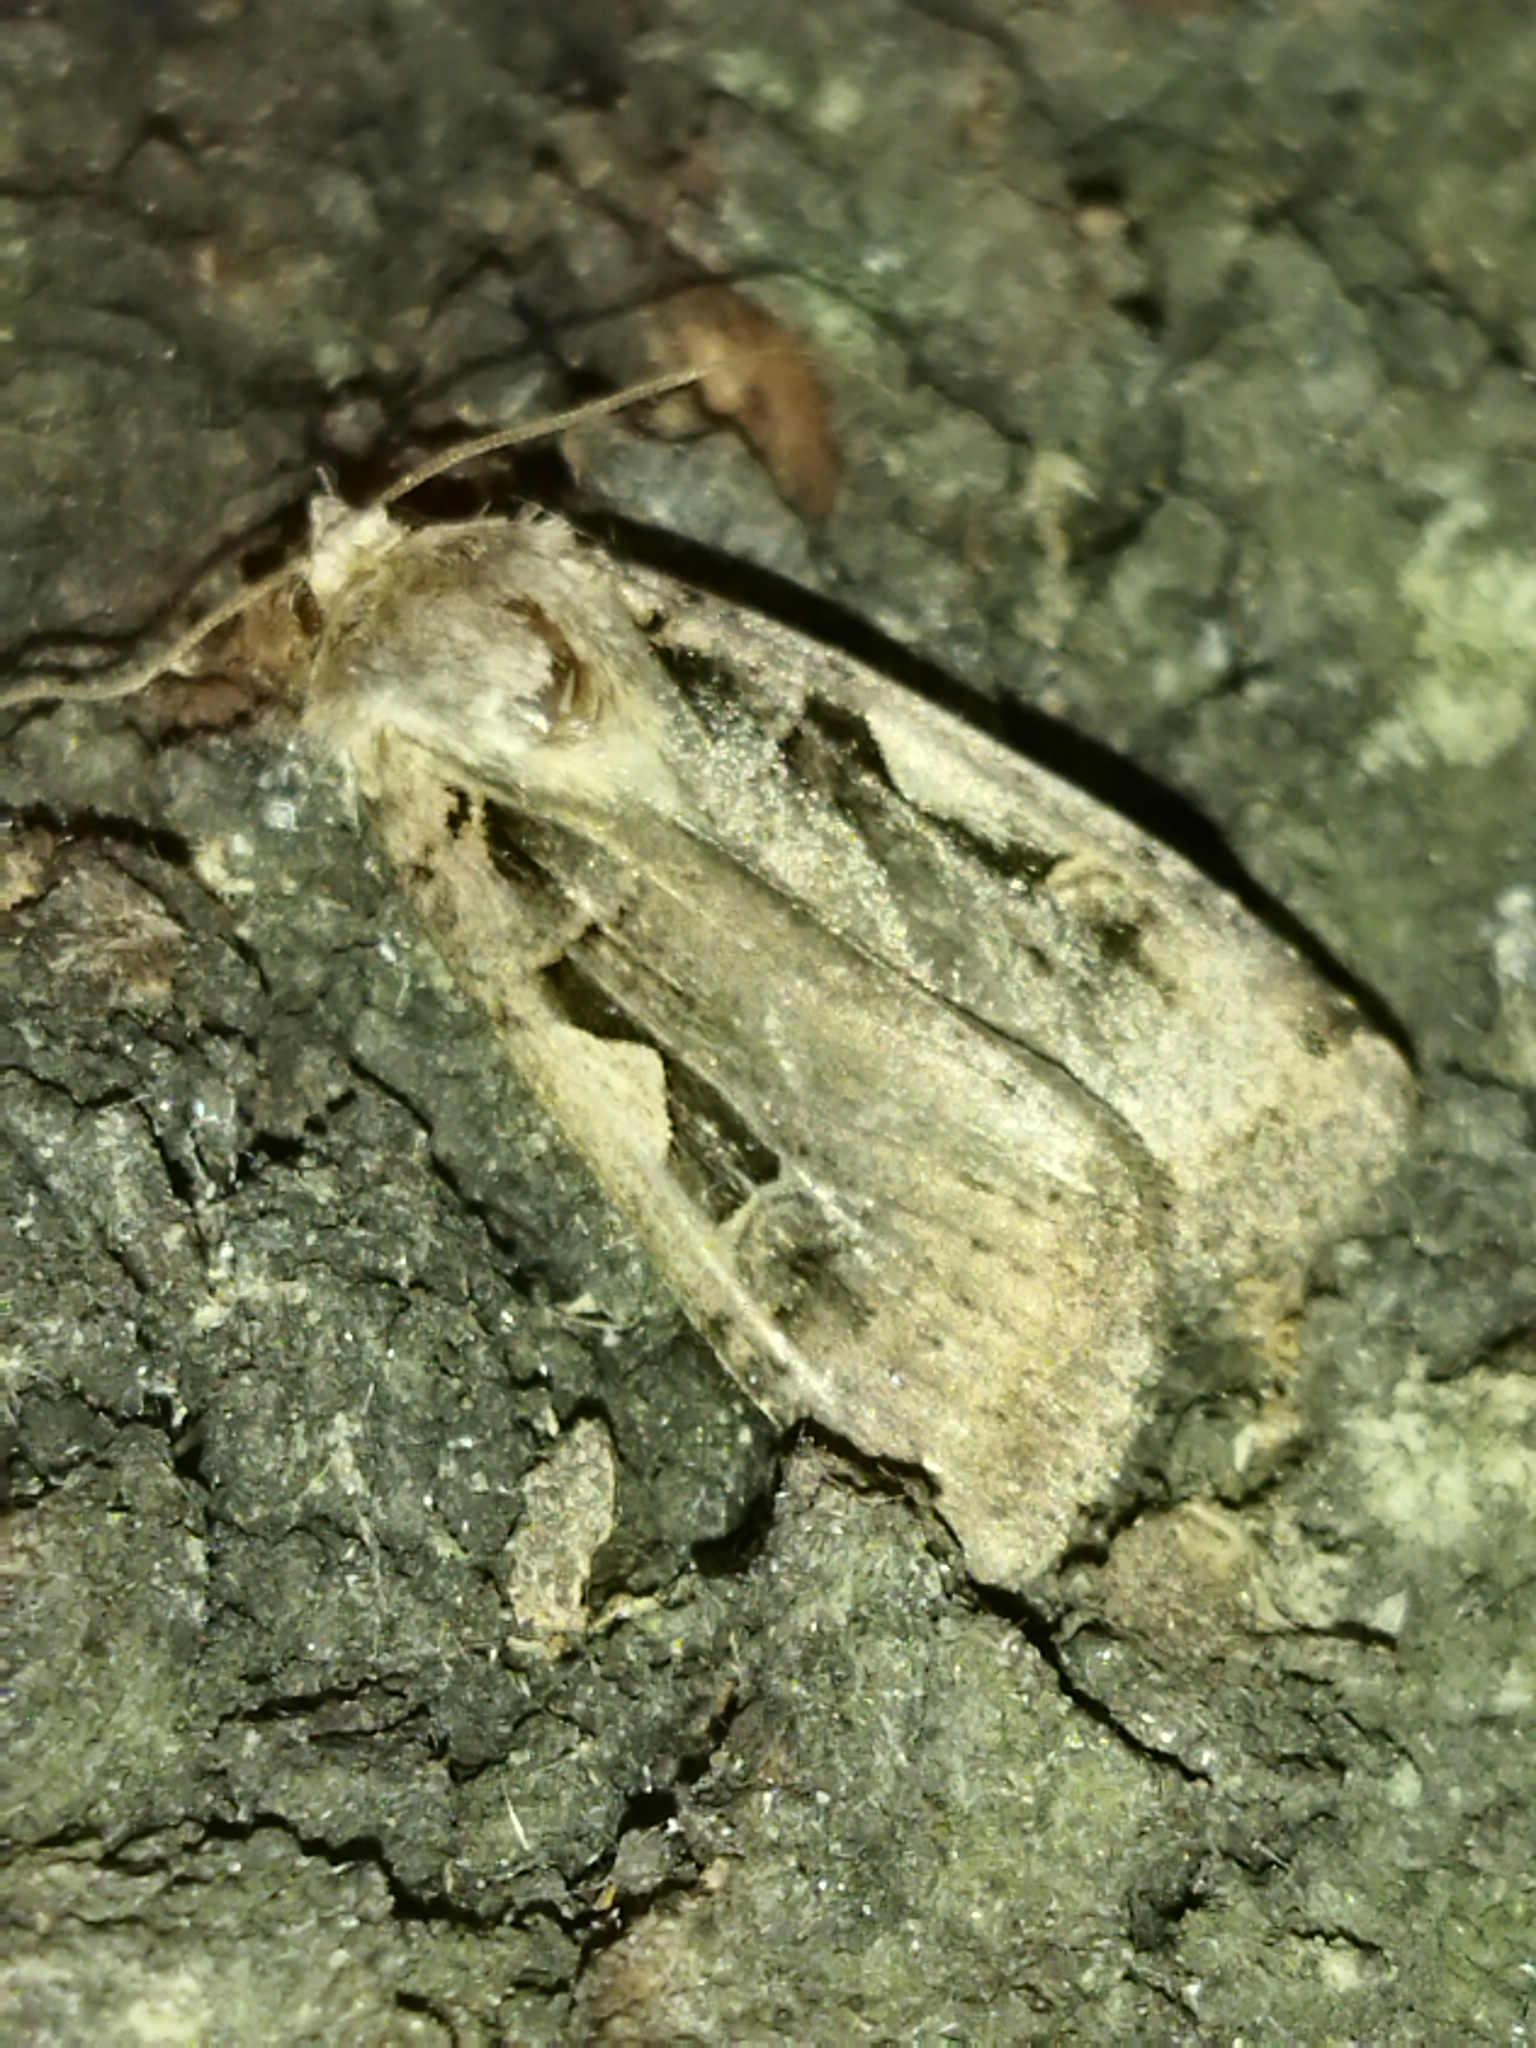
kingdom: Animalia
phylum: Arthropoda
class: Insecta
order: Lepidoptera
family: Noctuidae
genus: Xestia
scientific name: Xestia c-nigrum
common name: Setaceous hebrew character
